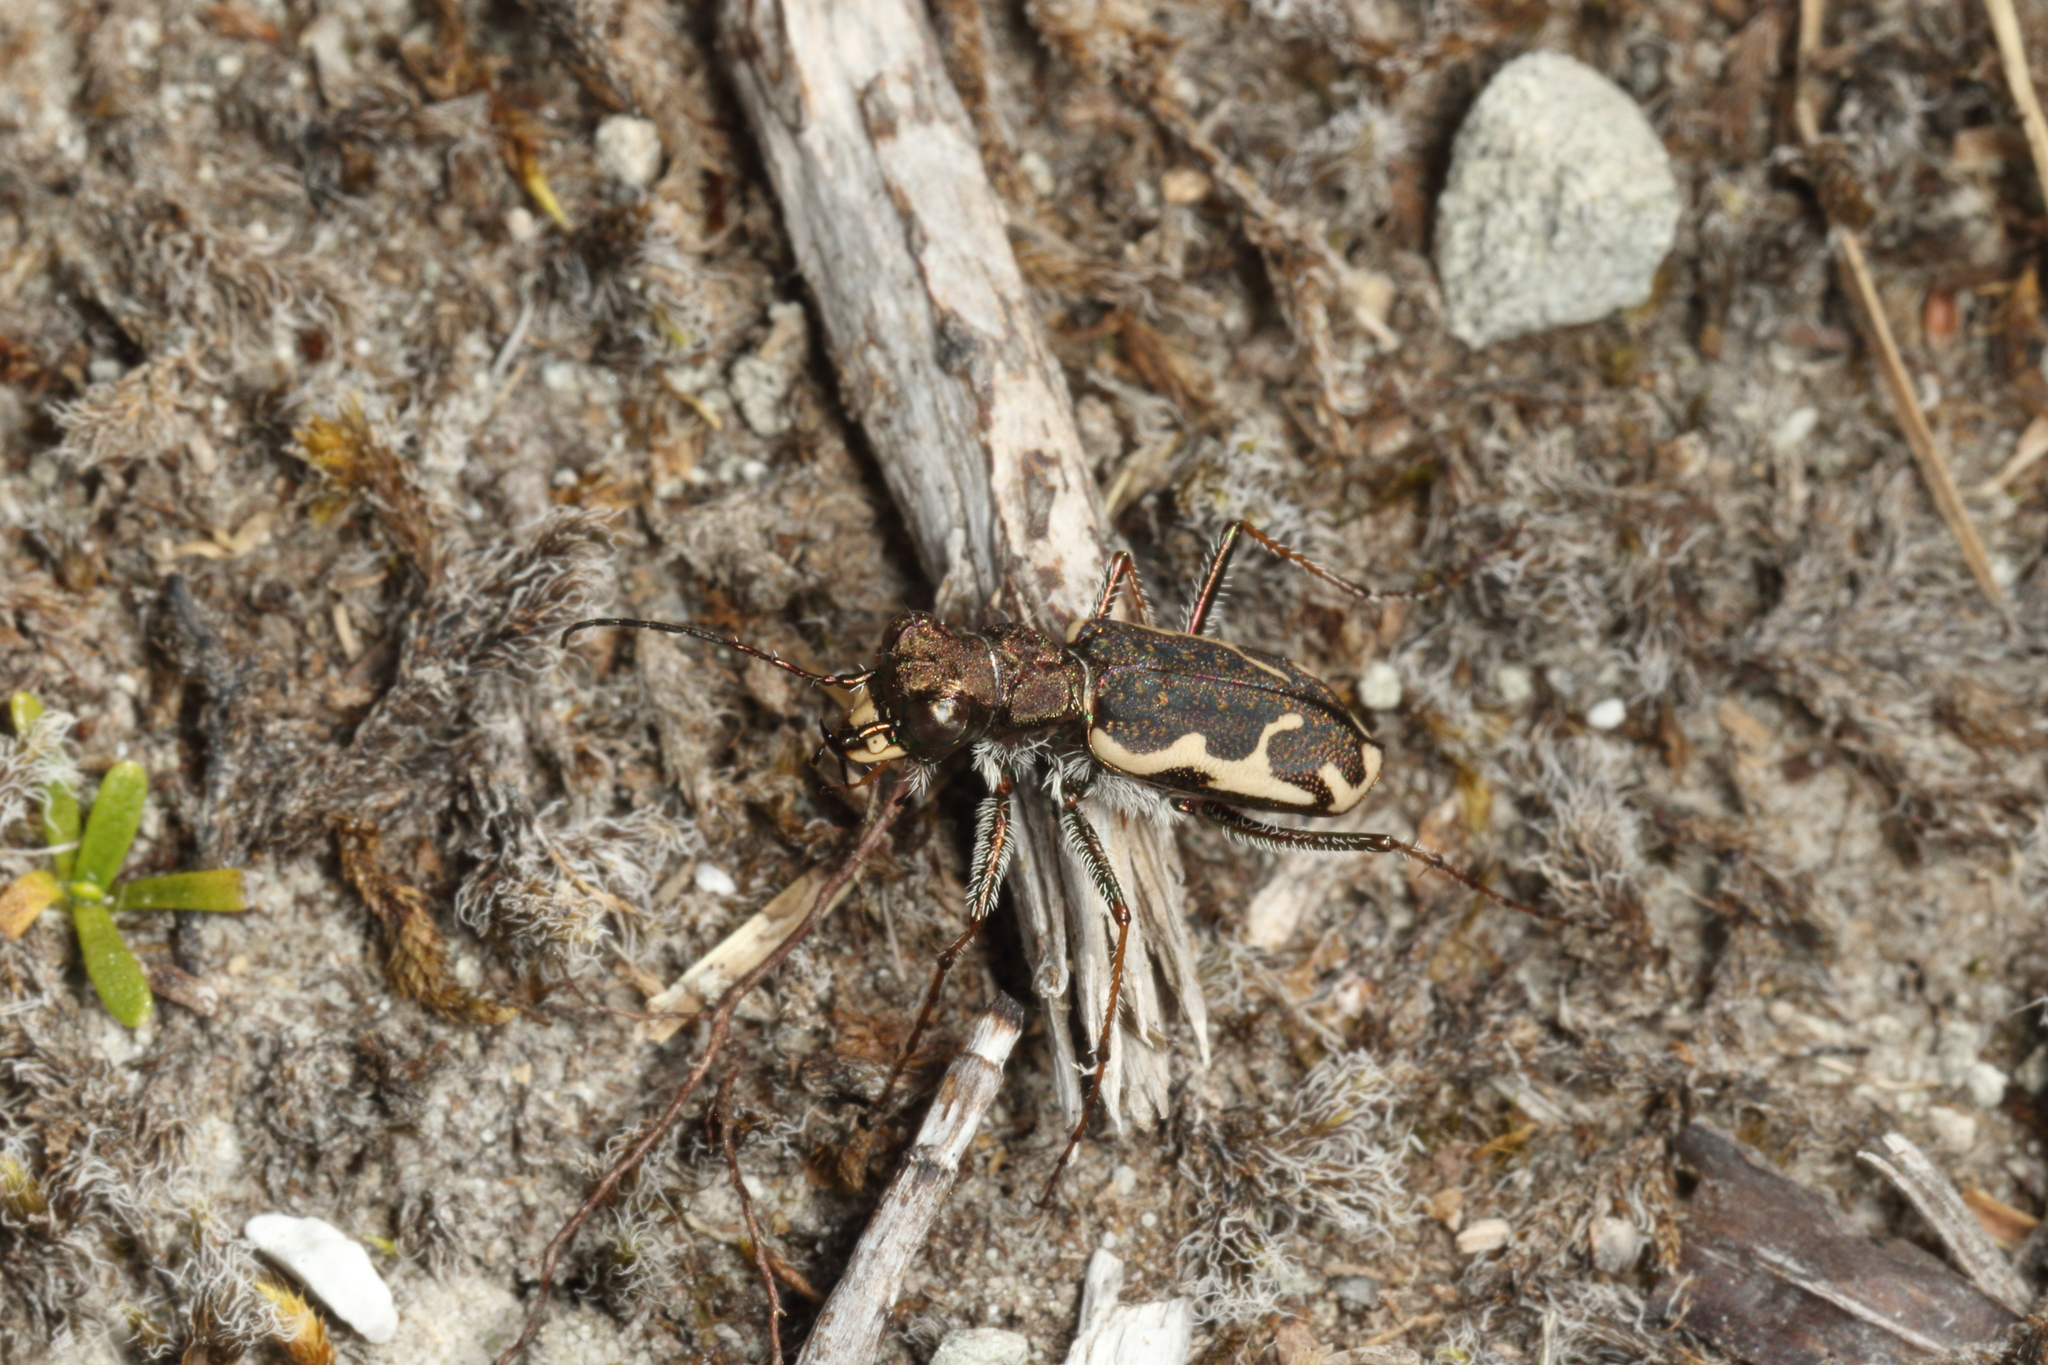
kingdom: Animalia
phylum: Arthropoda
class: Insecta
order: Coleoptera
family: Carabidae
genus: Neocicindela
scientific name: Neocicindela tuberculata
